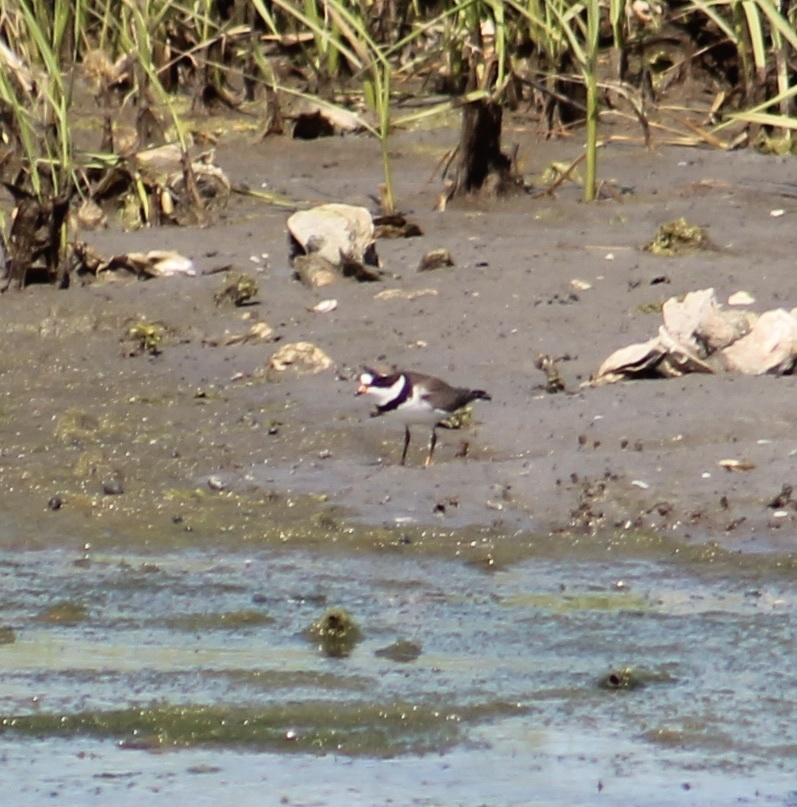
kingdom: Animalia
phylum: Chordata
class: Aves
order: Charadriiformes
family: Charadriidae
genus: Charadrius
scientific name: Charadrius semipalmatus
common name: Semipalmated plover
